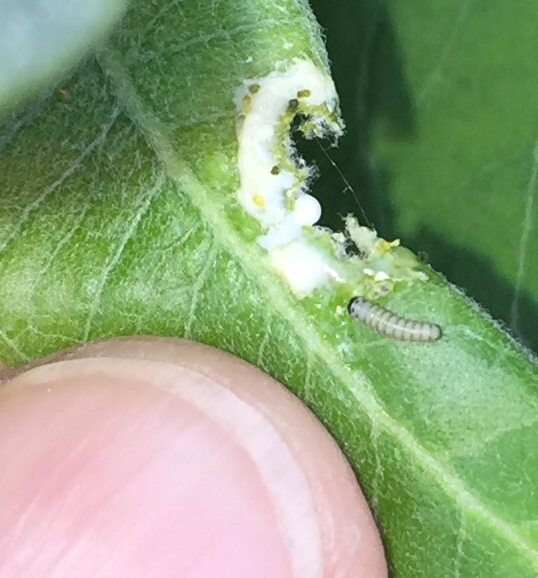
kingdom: Animalia
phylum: Arthropoda
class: Insecta
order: Lepidoptera
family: Nymphalidae
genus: Danaus
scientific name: Danaus plexippus
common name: Monarch
